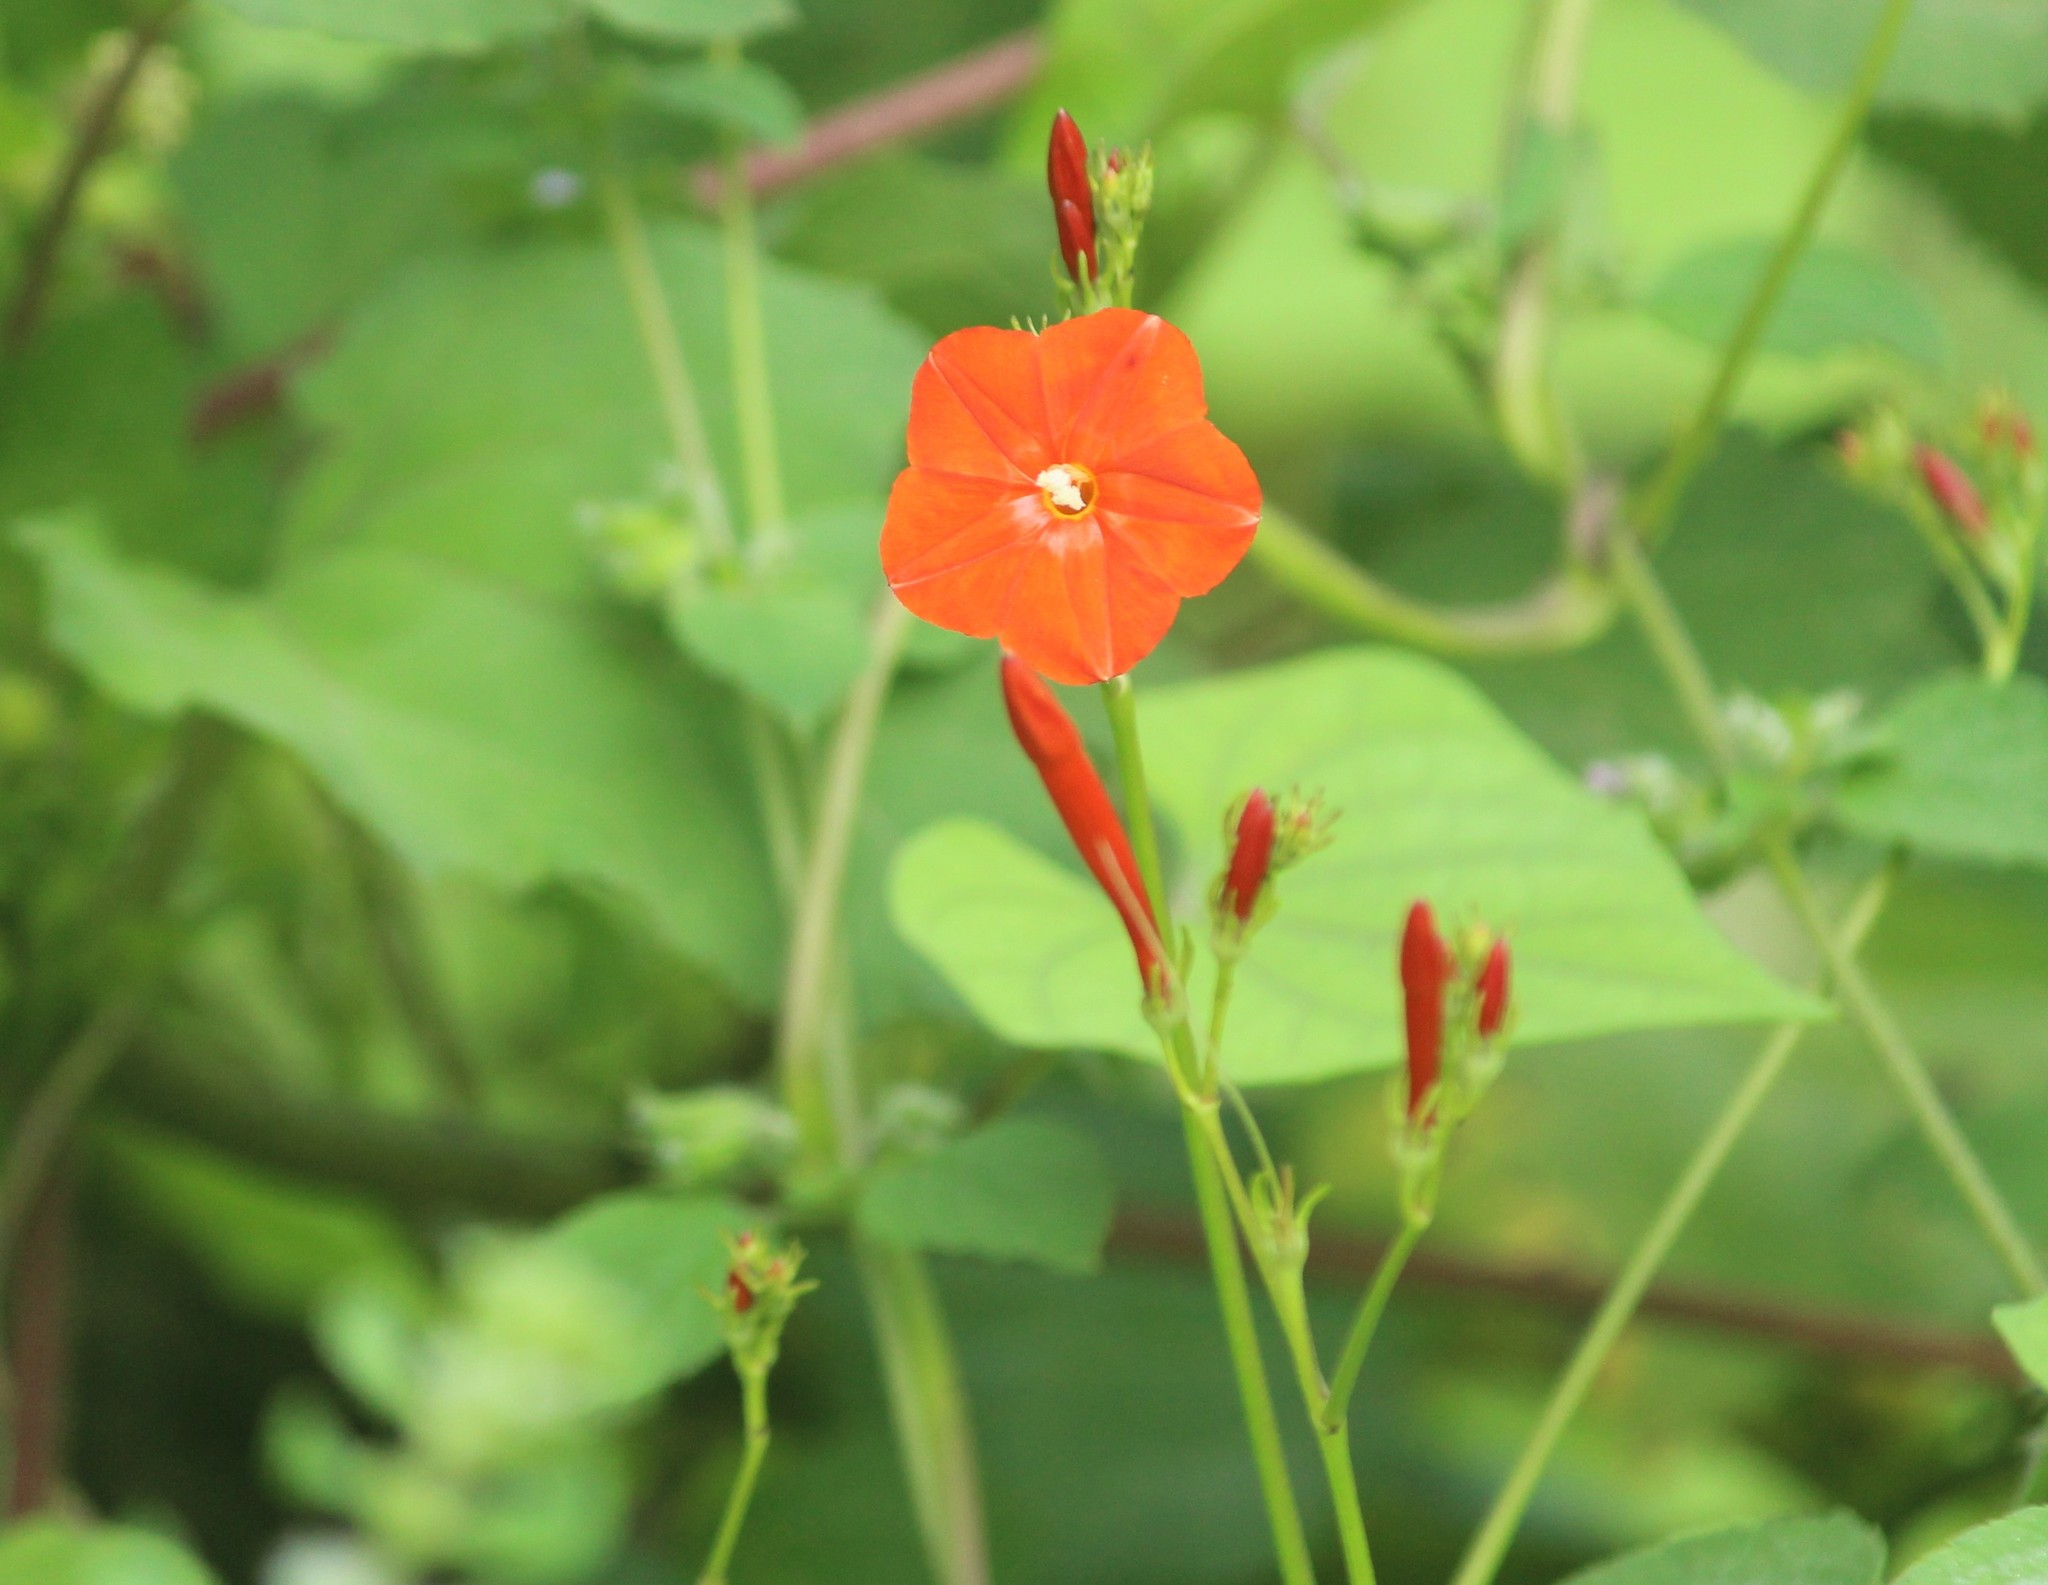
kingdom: Plantae
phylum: Tracheophyta
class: Magnoliopsida
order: Solanales
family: Convolvulaceae
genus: Ipomoea
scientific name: Ipomoea hederifolia
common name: Ivy-leaf morning-glory
